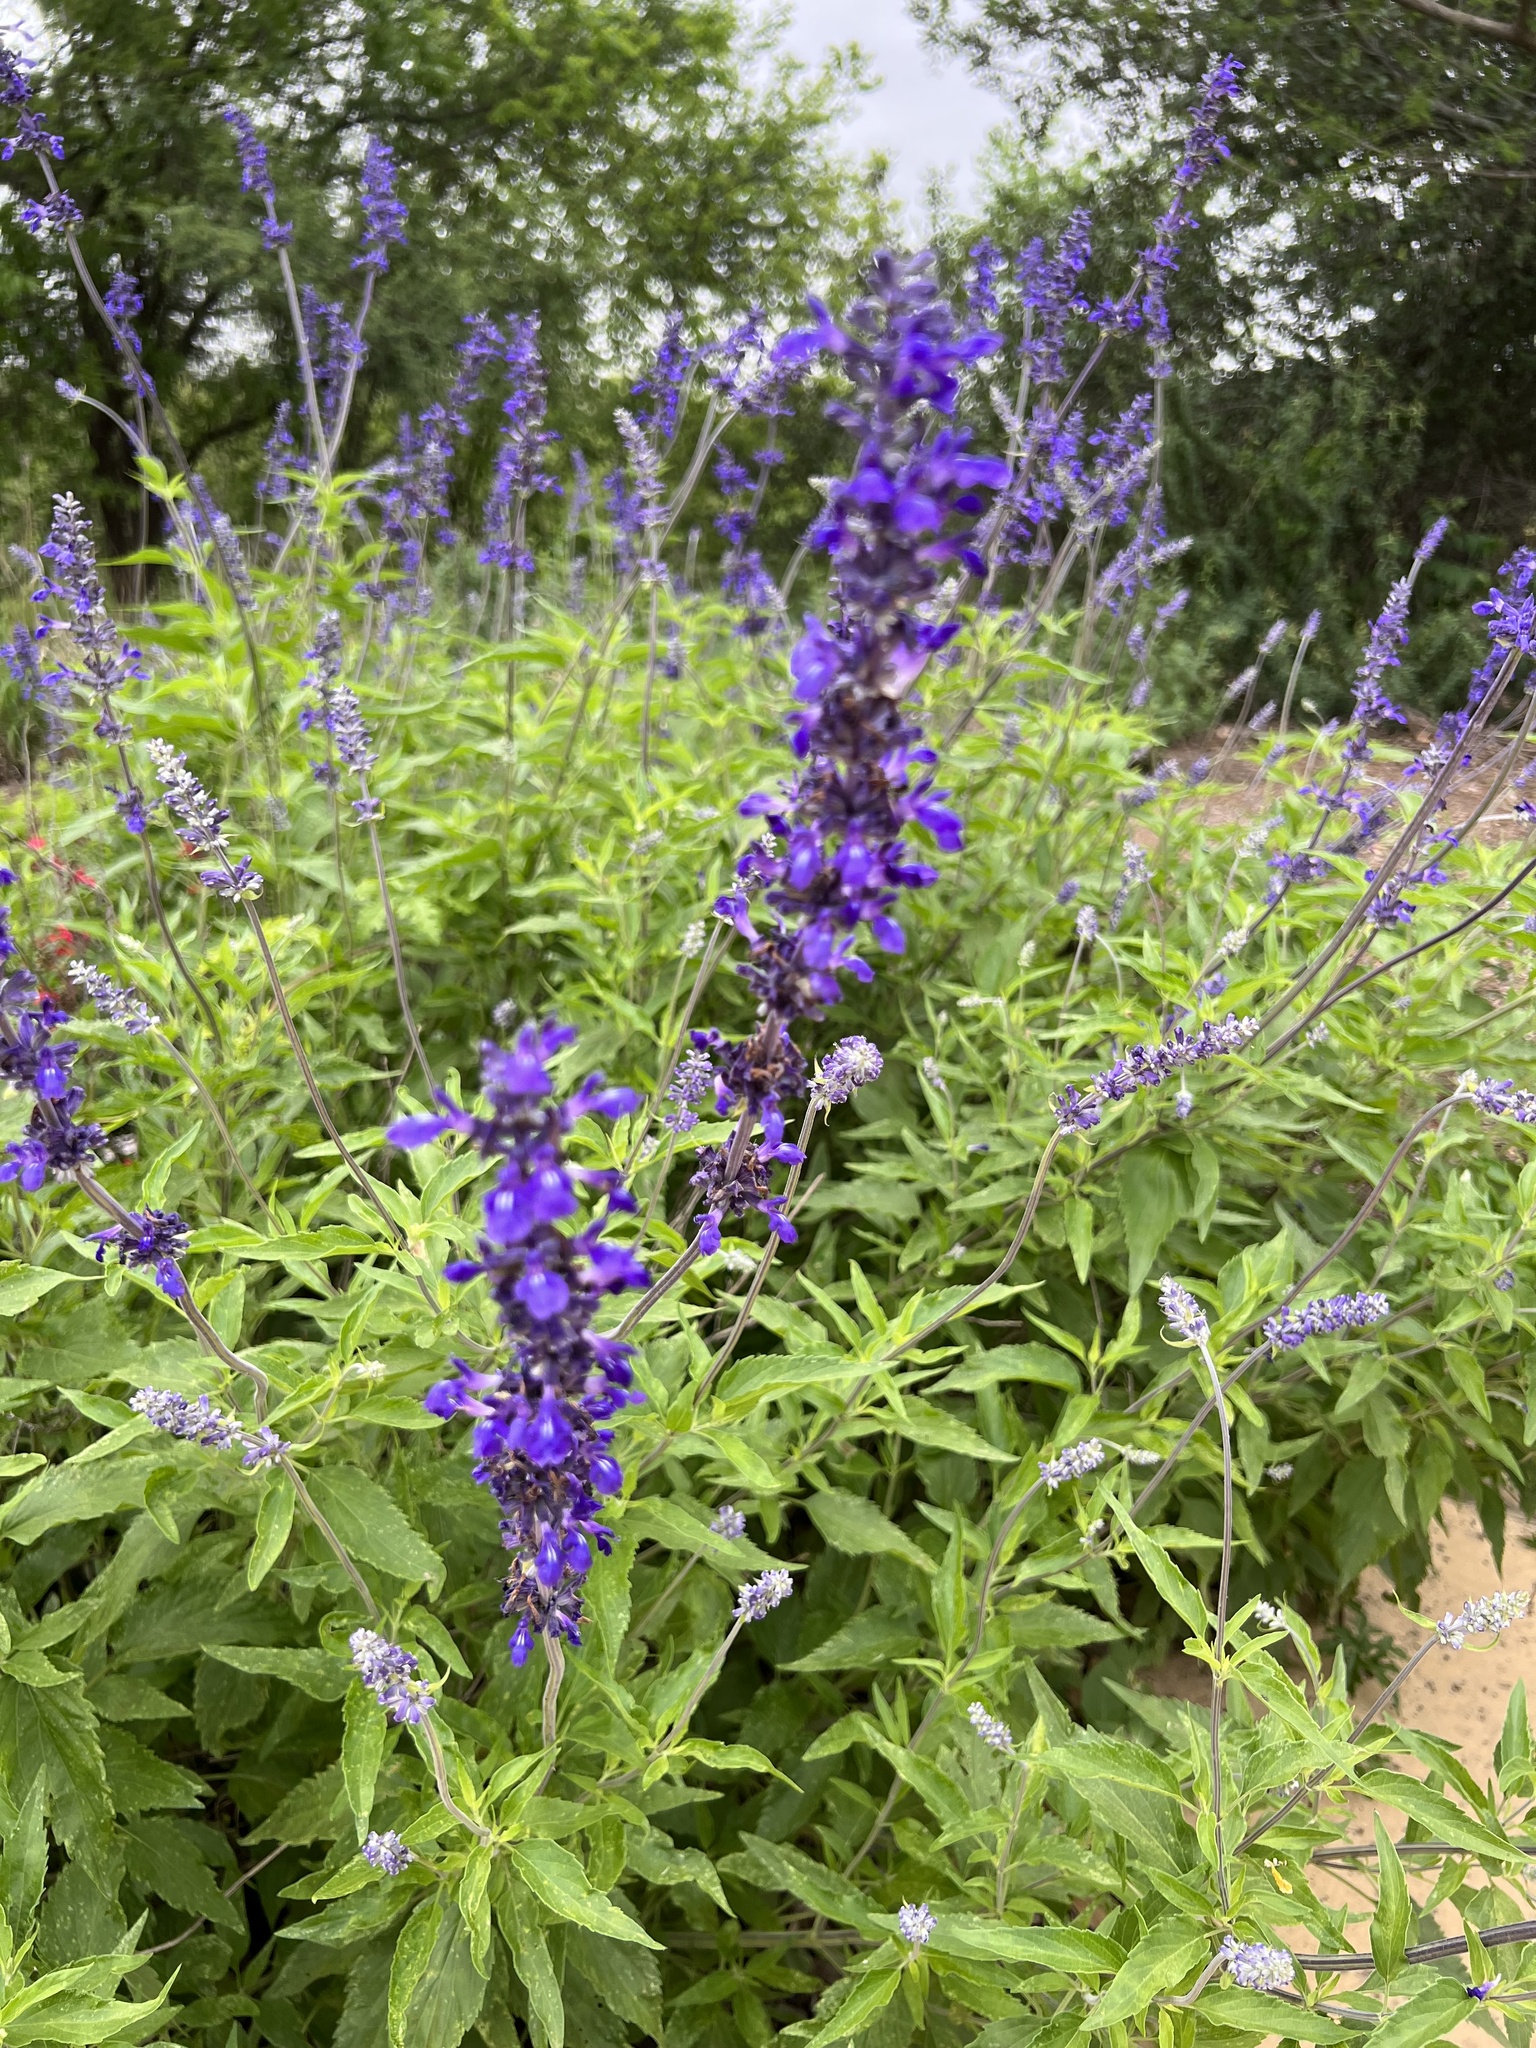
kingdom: Plantae
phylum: Tracheophyta
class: Magnoliopsida
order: Lamiales
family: Lamiaceae
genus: Salvia
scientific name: Salvia farinacea
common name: Mealy sage
